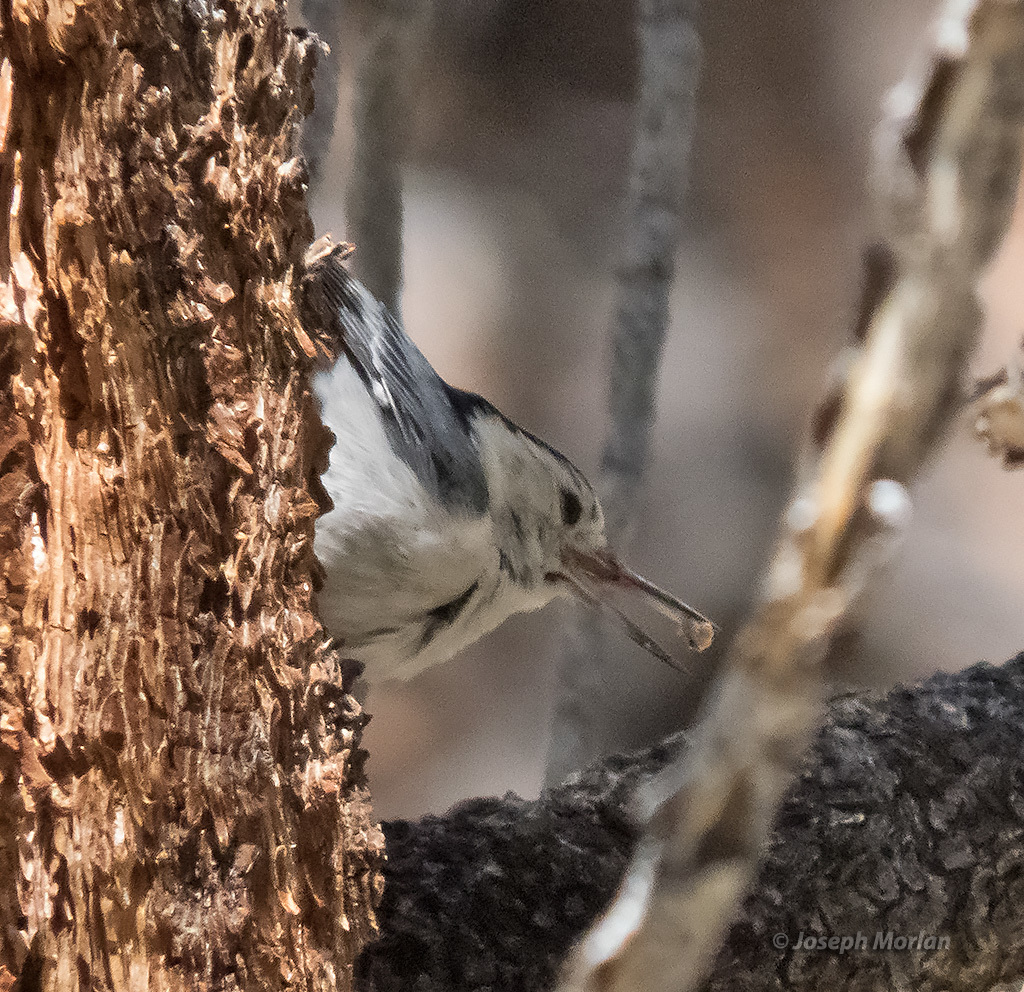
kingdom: Animalia
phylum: Chordata
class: Aves
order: Passeriformes
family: Sittidae
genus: Sitta
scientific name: Sitta carolinensis
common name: White-breasted nuthatch
